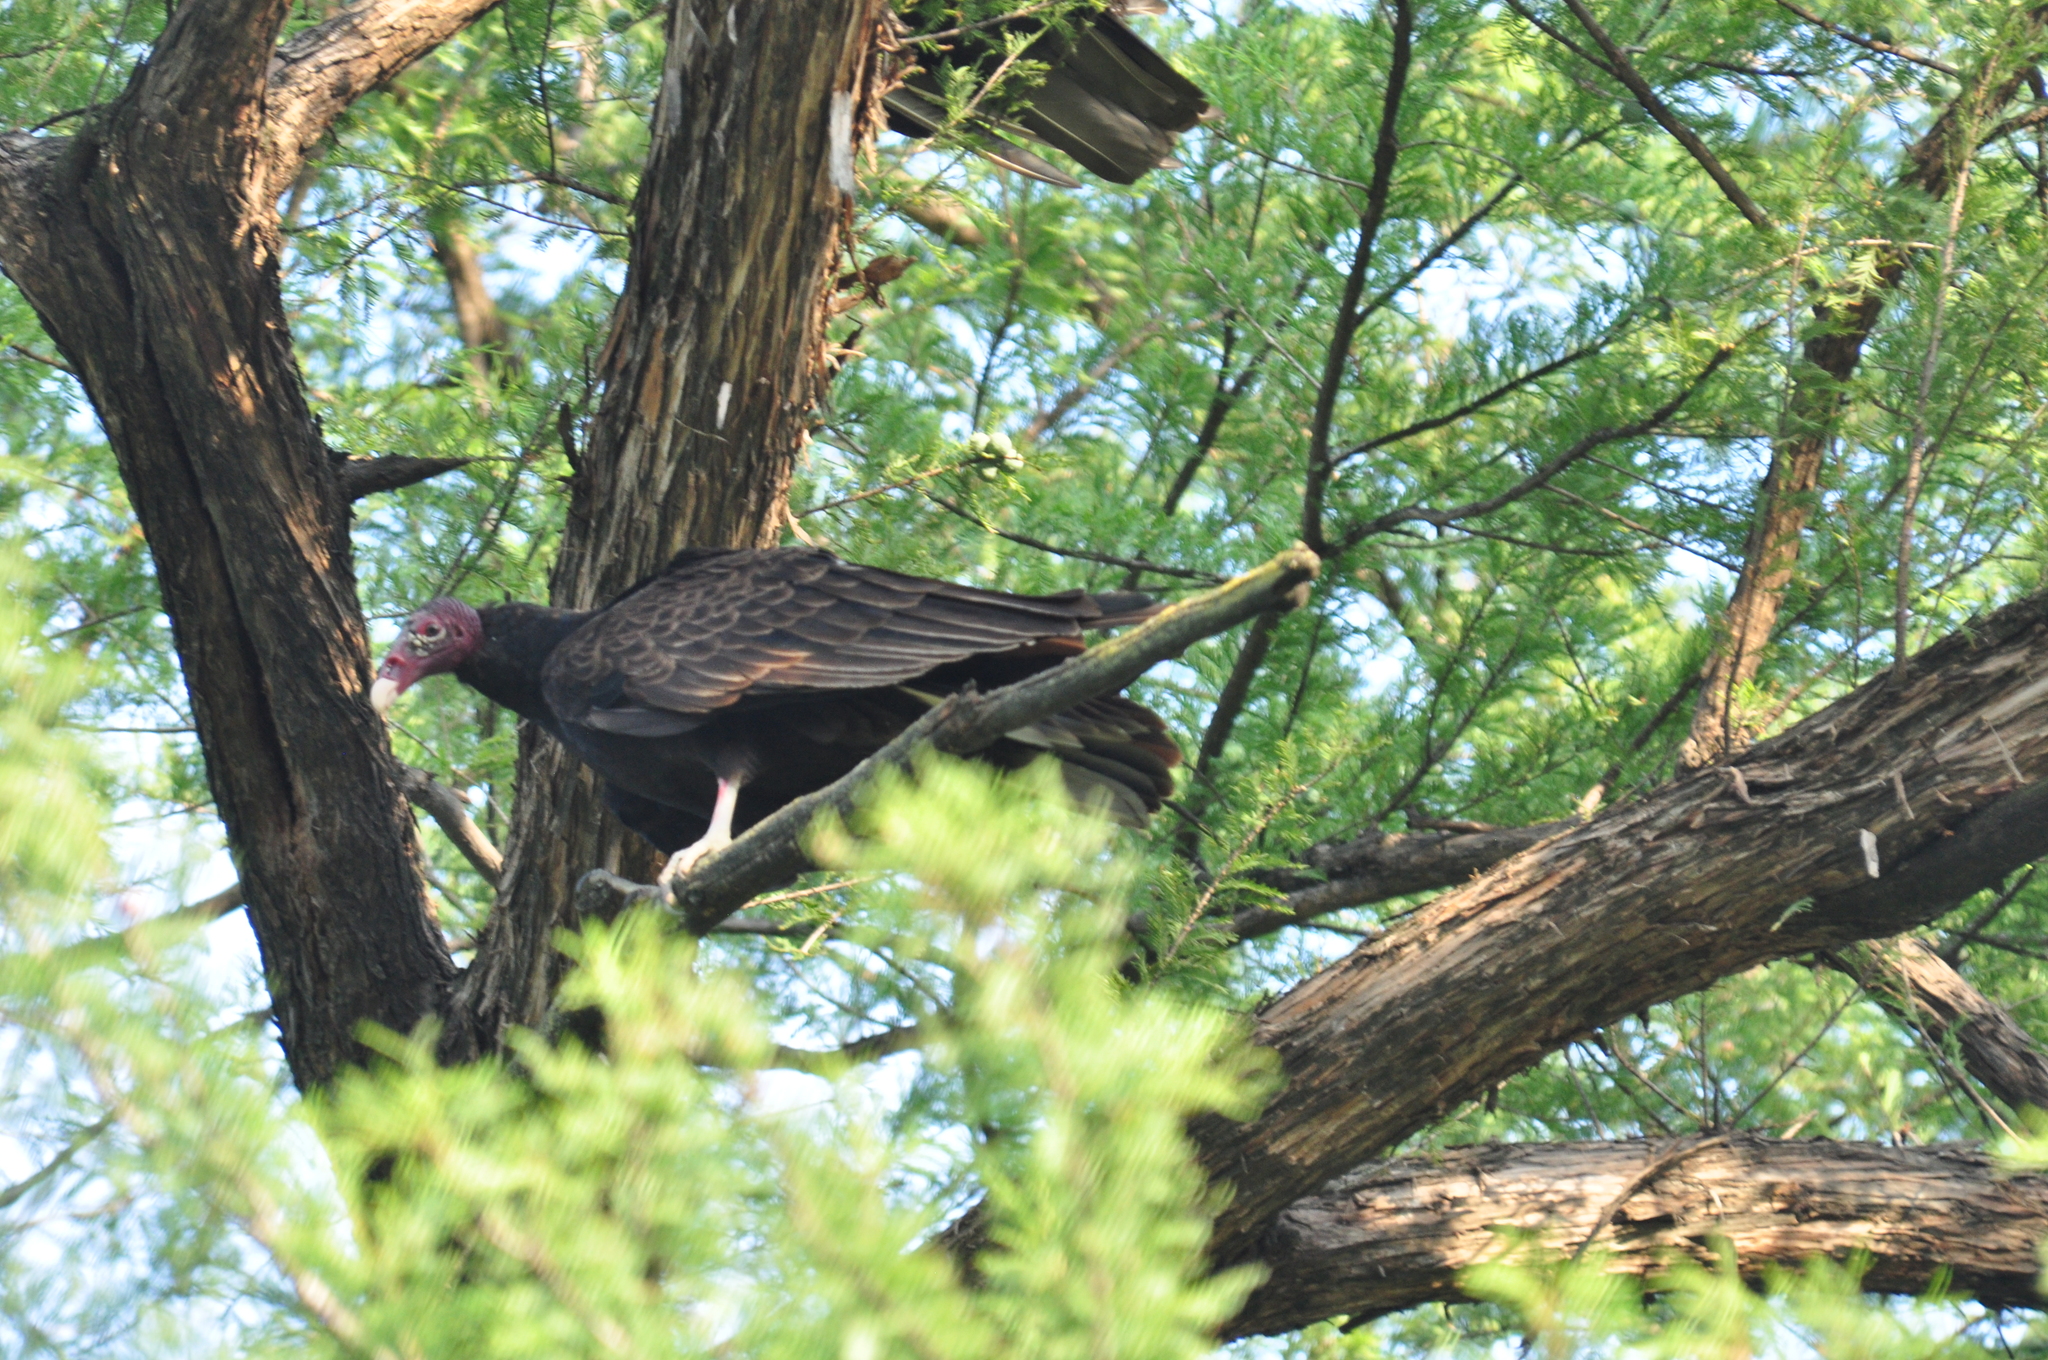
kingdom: Animalia
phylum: Chordata
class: Aves
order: Accipitriformes
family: Cathartidae
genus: Cathartes
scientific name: Cathartes aura
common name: Turkey vulture
